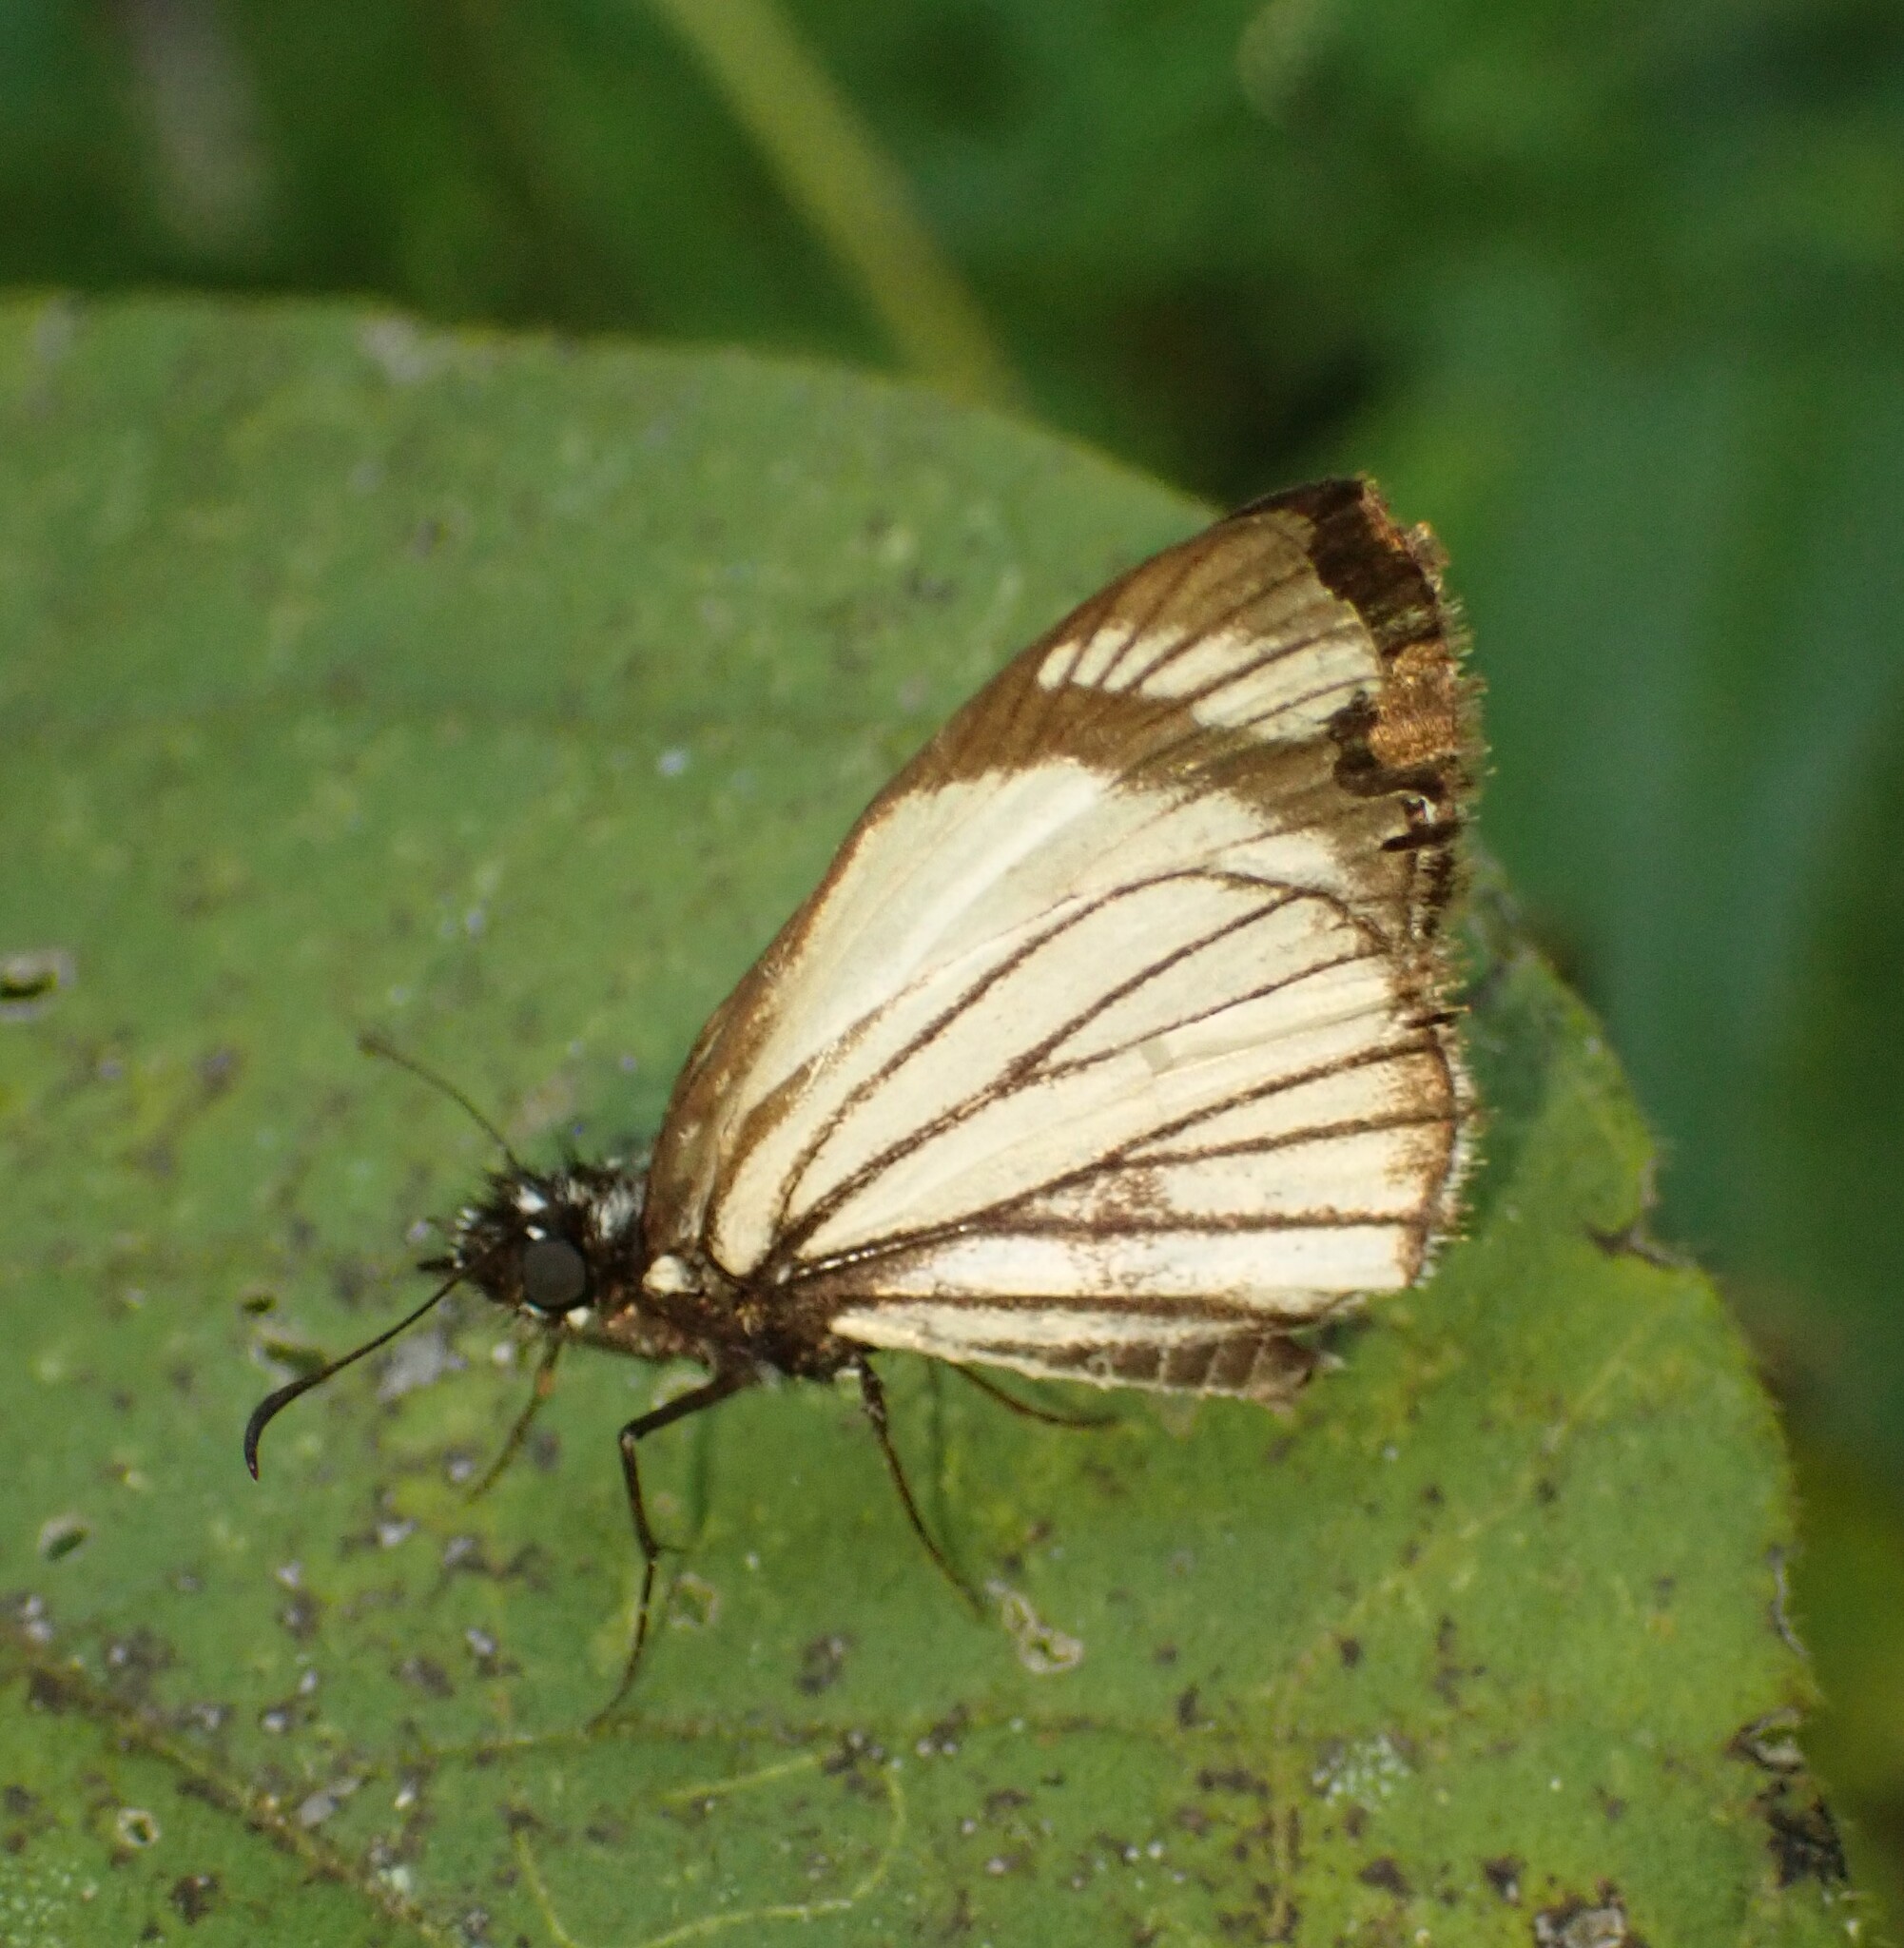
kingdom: Animalia
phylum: Arthropoda
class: Insecta
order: Lepidoptera
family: Hesperiidae
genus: Heliopetes
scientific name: Heliopetes alana
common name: Alana white-skipper
